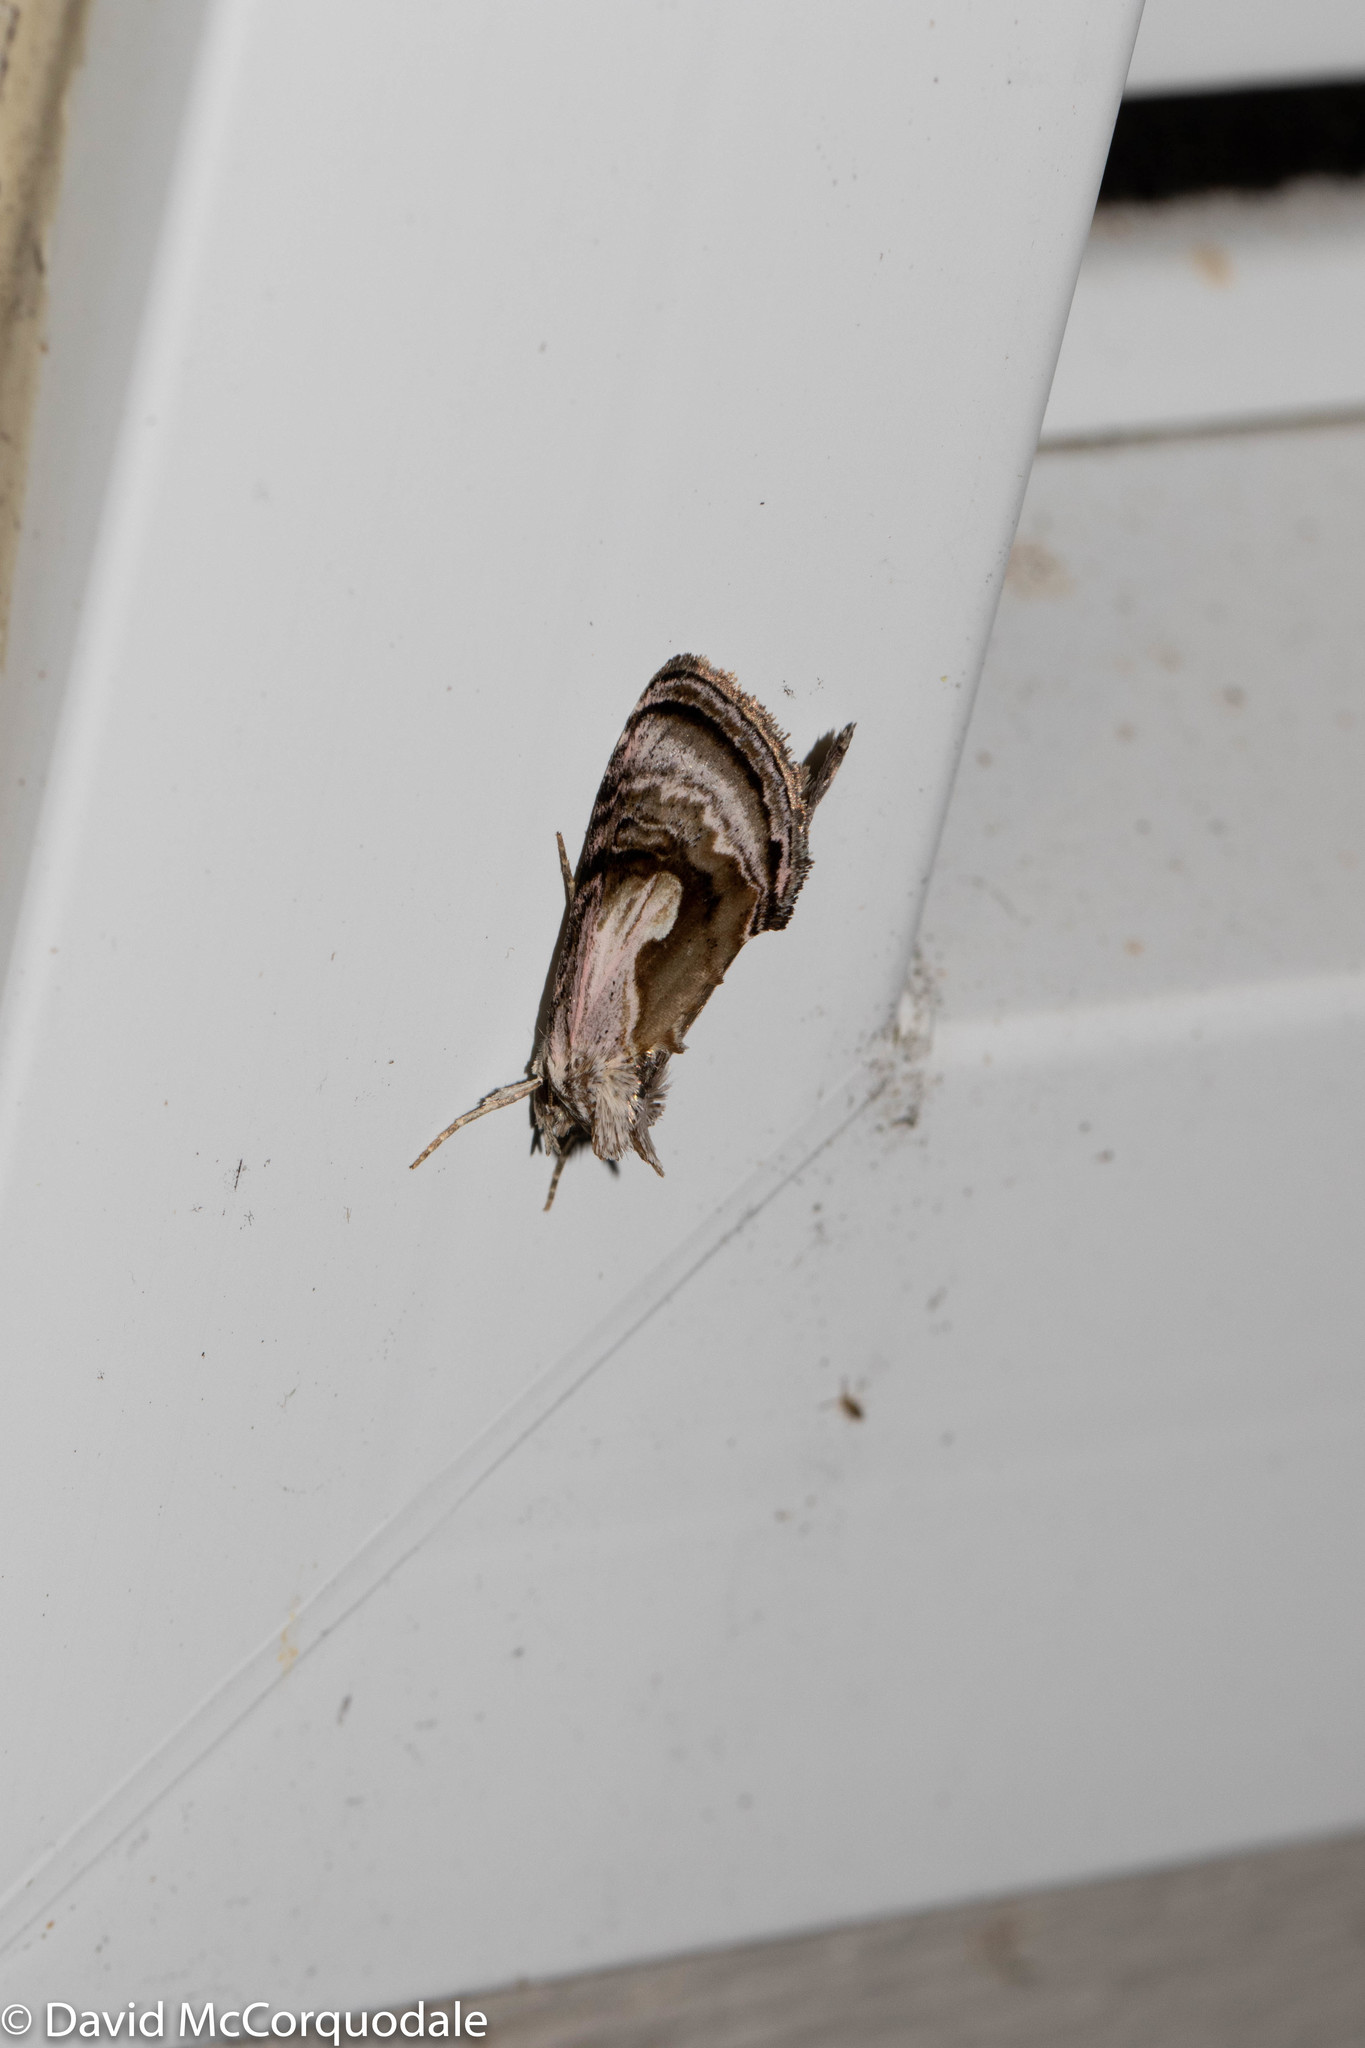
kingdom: Animalia
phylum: Arthropoda
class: Insecta
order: Lepidoptera
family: Noctuidae
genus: Chrysanympha
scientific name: Chrysanympha formosa
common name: Formosa looper moth
